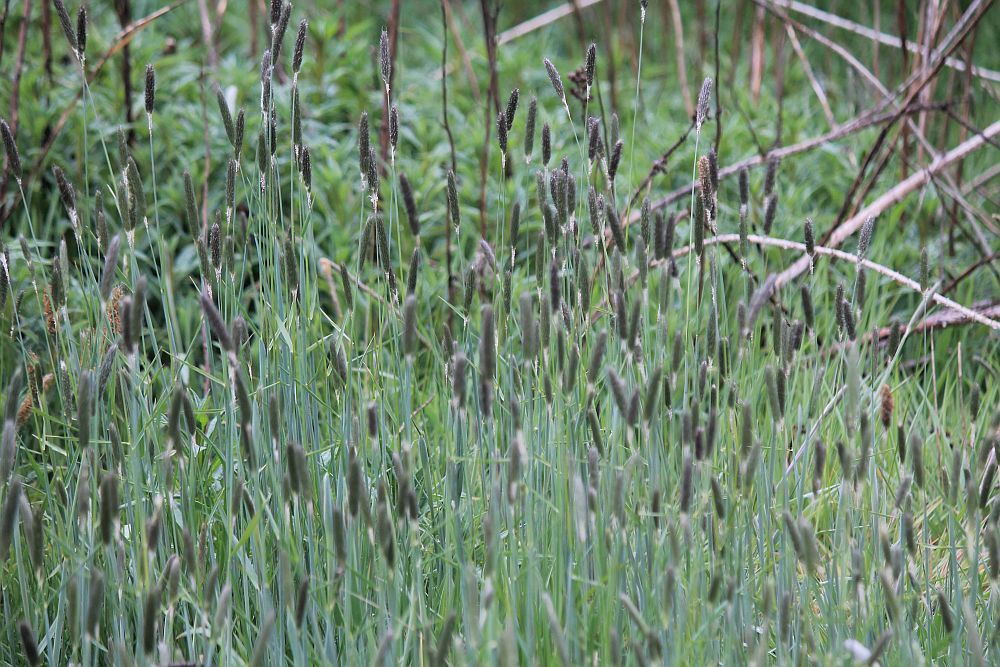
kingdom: Plantae
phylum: Tracheophyta
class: Liliopsida
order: Poales
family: Poaceae
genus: Alopecurus
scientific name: Alopecurus pratensis
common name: Meadow foxtail
